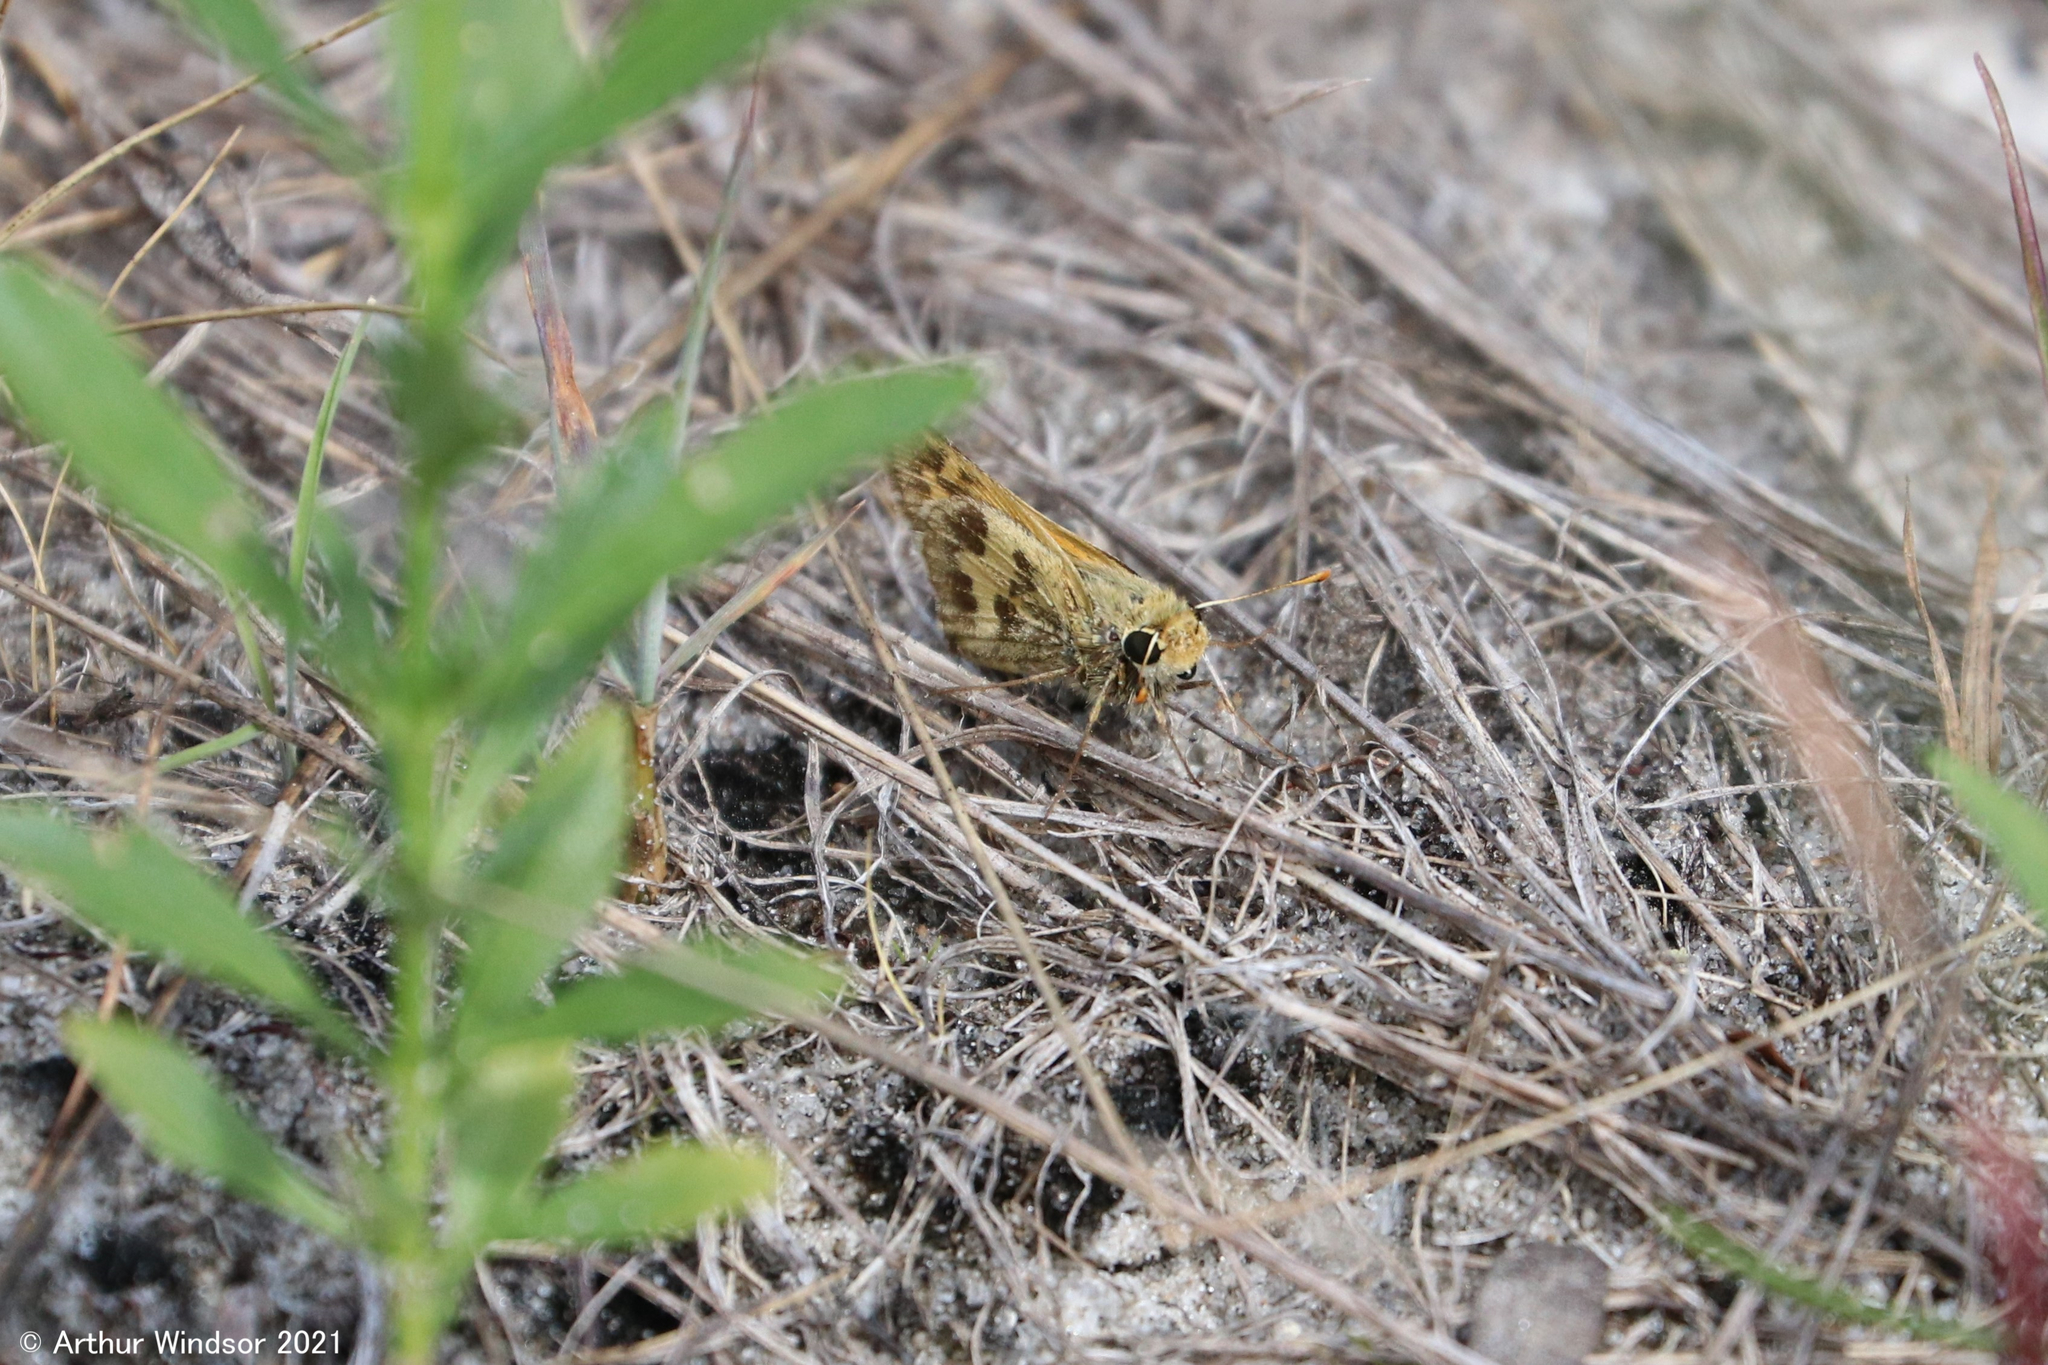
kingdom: Animalia
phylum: Arthropoda
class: Insecta
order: Lepidoptera
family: Hesperiidae
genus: Polites
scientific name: Polites vibex
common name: Whirlabout
